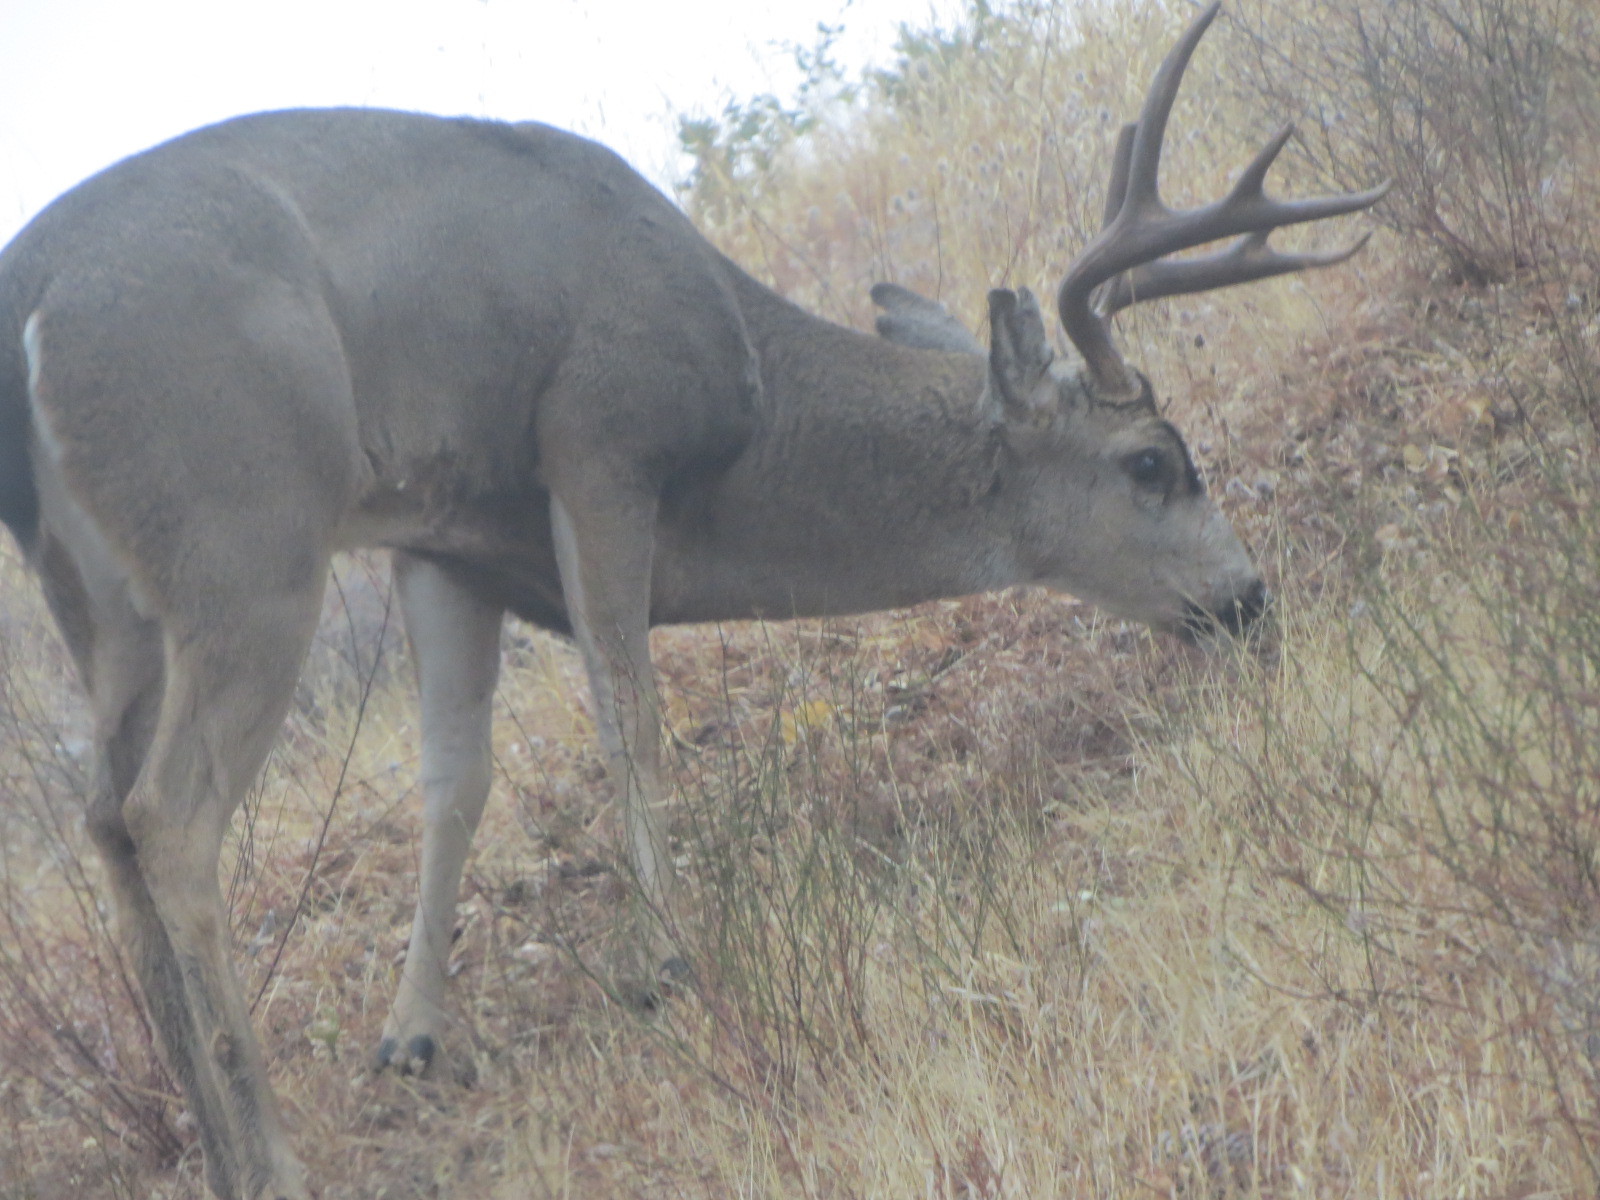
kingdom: Animalia
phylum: Chordata
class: Mammalia
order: Artiodactyla
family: Cervidae
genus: Odocoileus
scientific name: Odocoileus hemionus
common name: Mule deer
